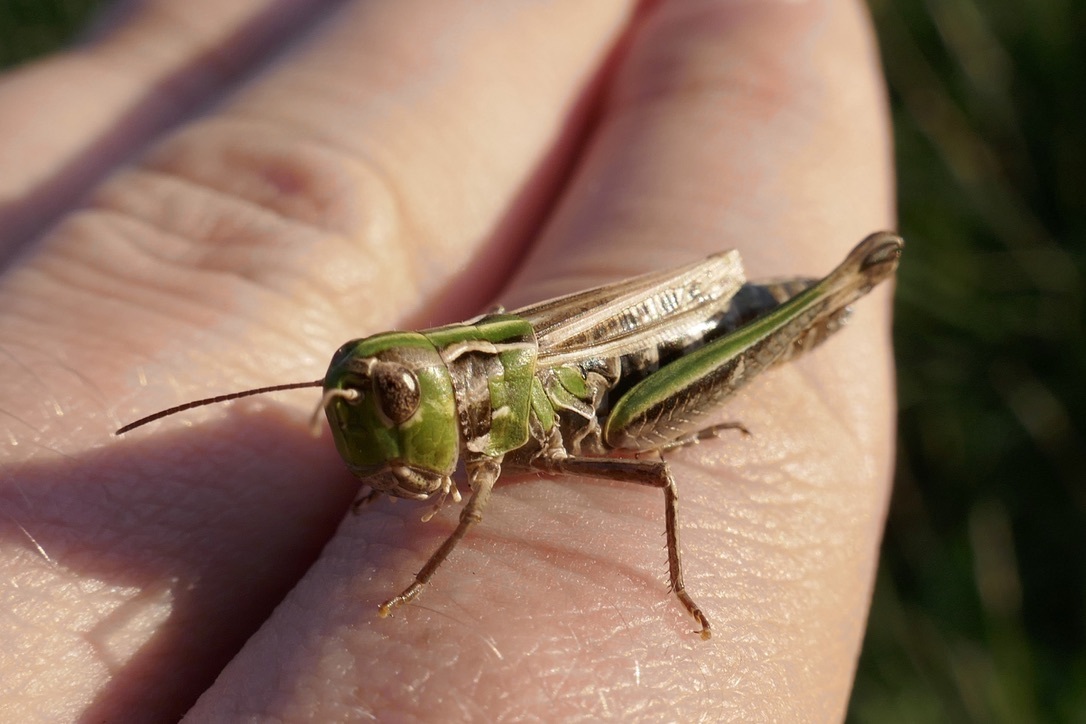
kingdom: Animalia
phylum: Arthropoda
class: Insecta
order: Orthoptera
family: Acrididae
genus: Stenobothrus
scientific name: Stenobothrus nigromaculatus
